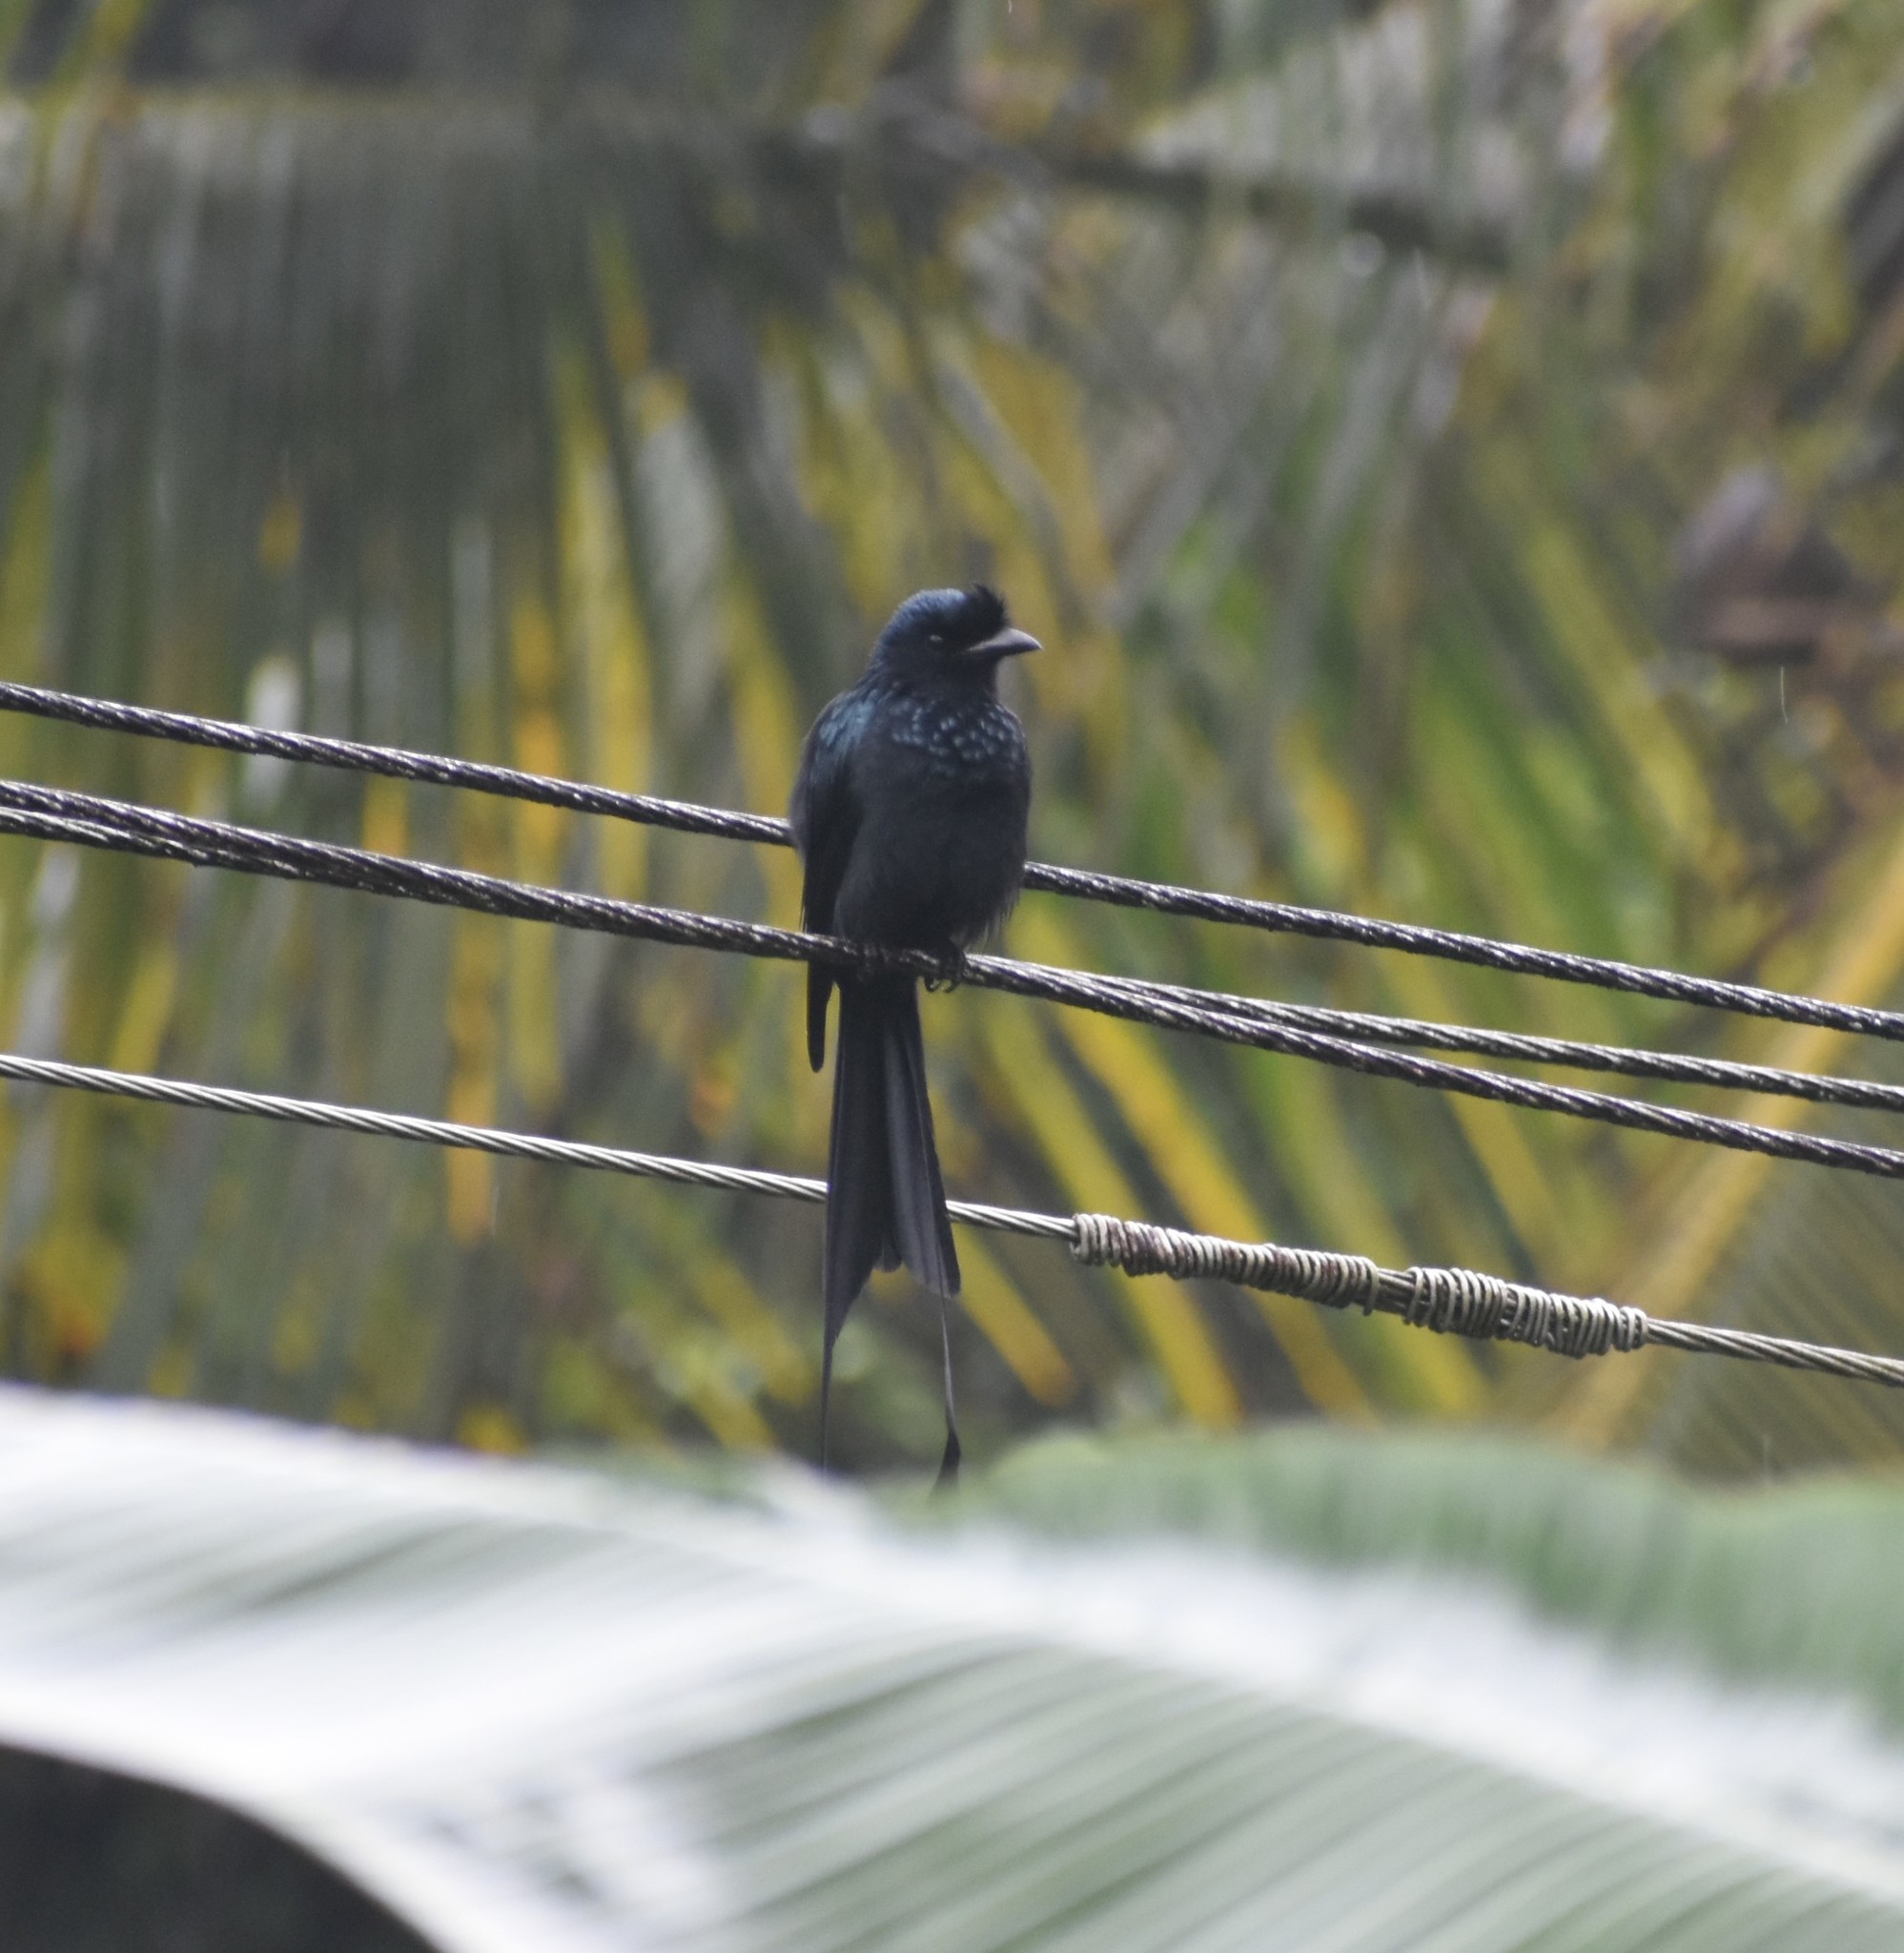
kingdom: Animalia
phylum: Chordata
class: Aves
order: Passeriformes
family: Dicruridae
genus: Dicrurus
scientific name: Dicrurus paradiseus
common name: Greater racket-tailed drongo
